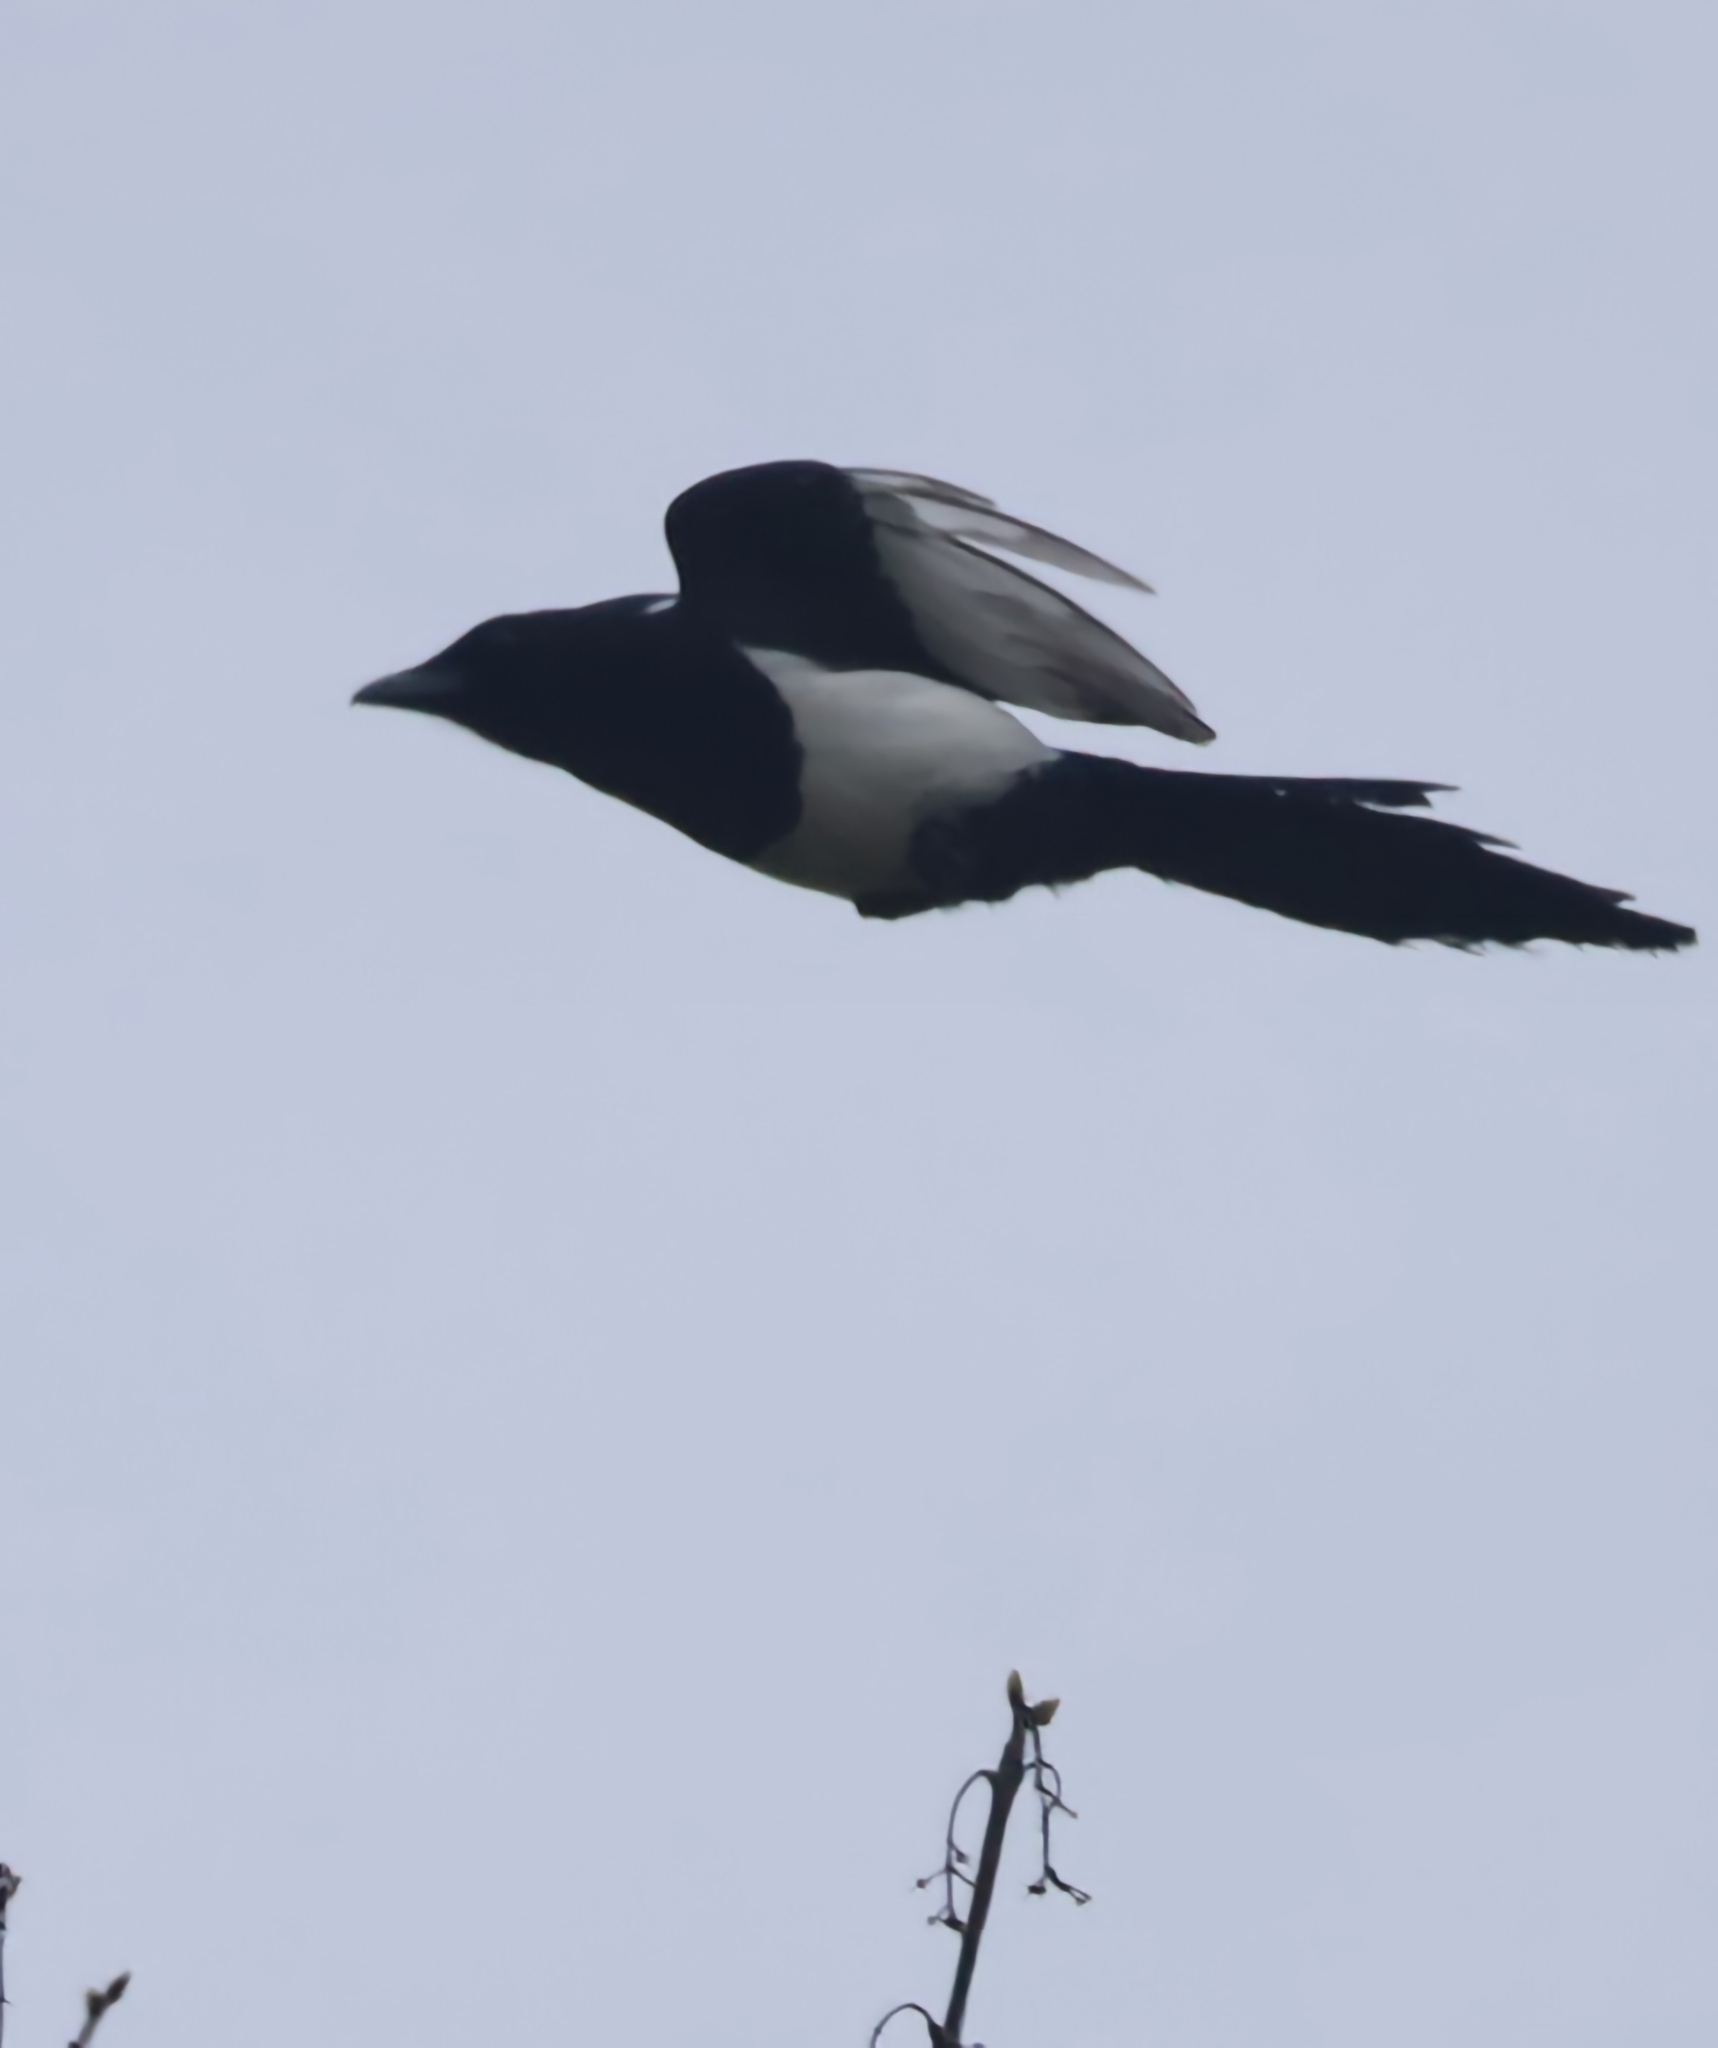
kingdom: Animalia
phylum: Chordata
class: Aves
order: Passeriformes
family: Corvidae
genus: Pica
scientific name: Pica pica
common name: Eurasian magpie
